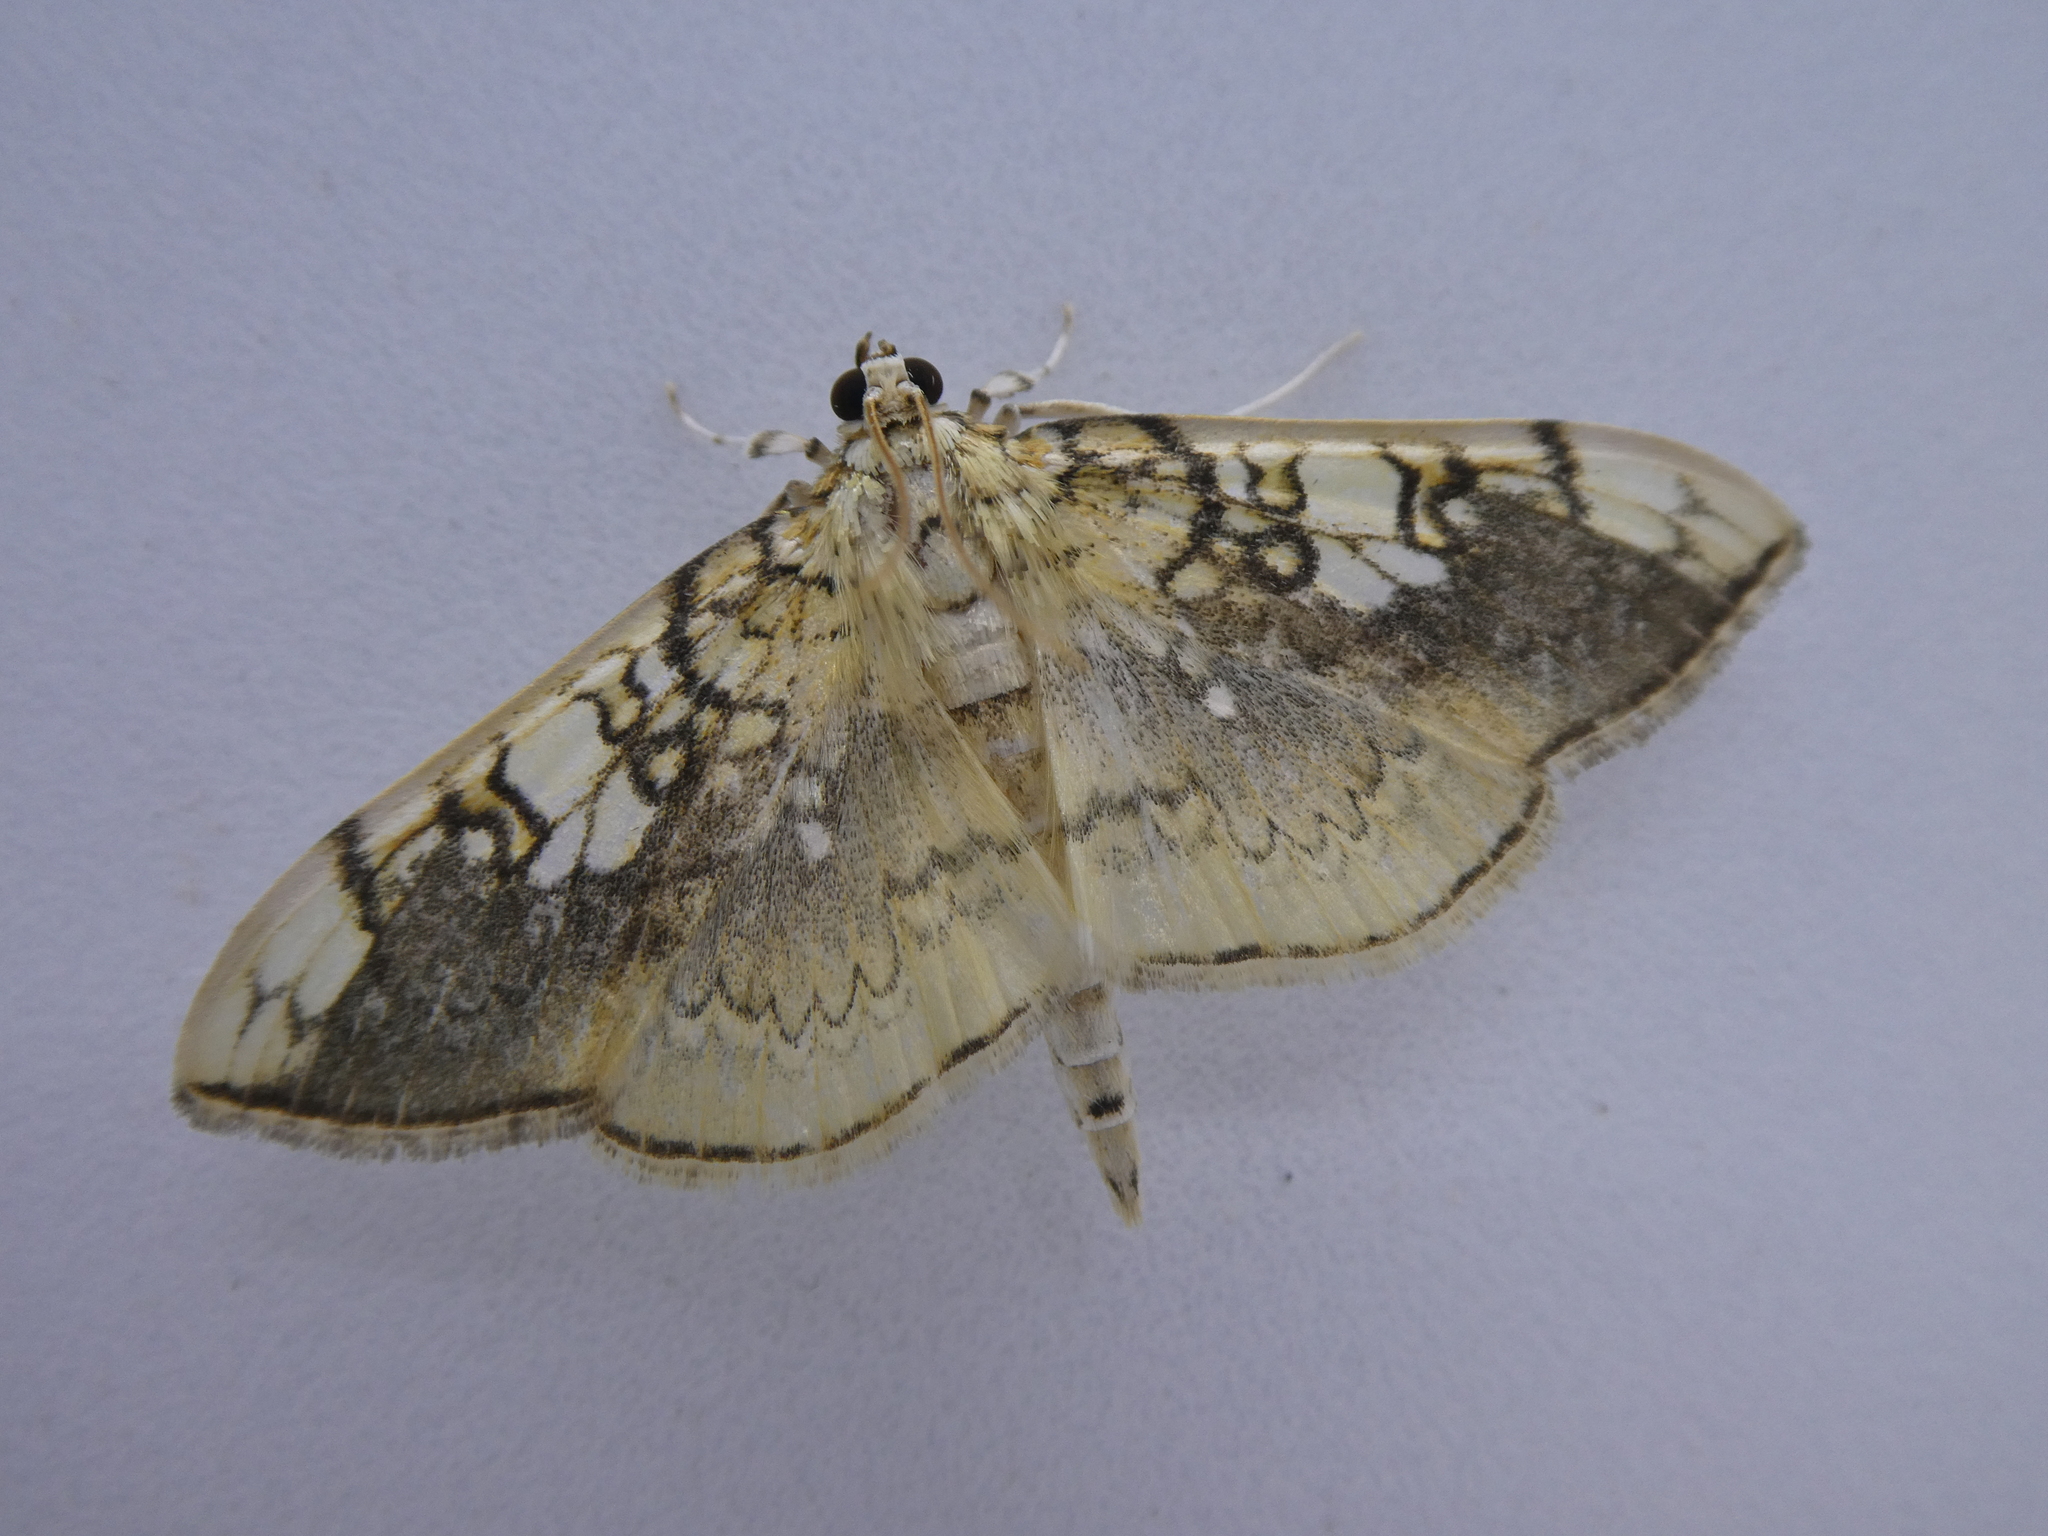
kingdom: Animalia
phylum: Arthropoda
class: Insecta
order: Lepidoptera
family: Crambidae
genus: Pantographa
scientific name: Pantographa limata
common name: Basswood leafroller moth
